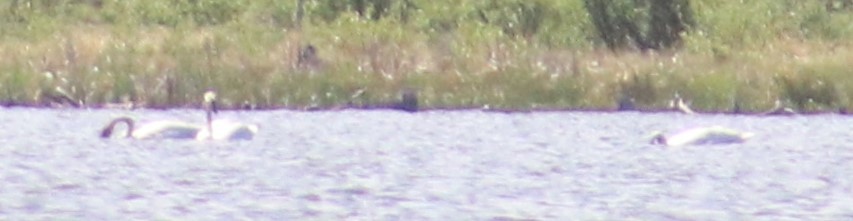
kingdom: Animalia
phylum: Chordata
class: Aves
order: Anseriformes
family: Anatidae
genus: Cygnus
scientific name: Cygnus buccinator
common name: Trumpeter swan
